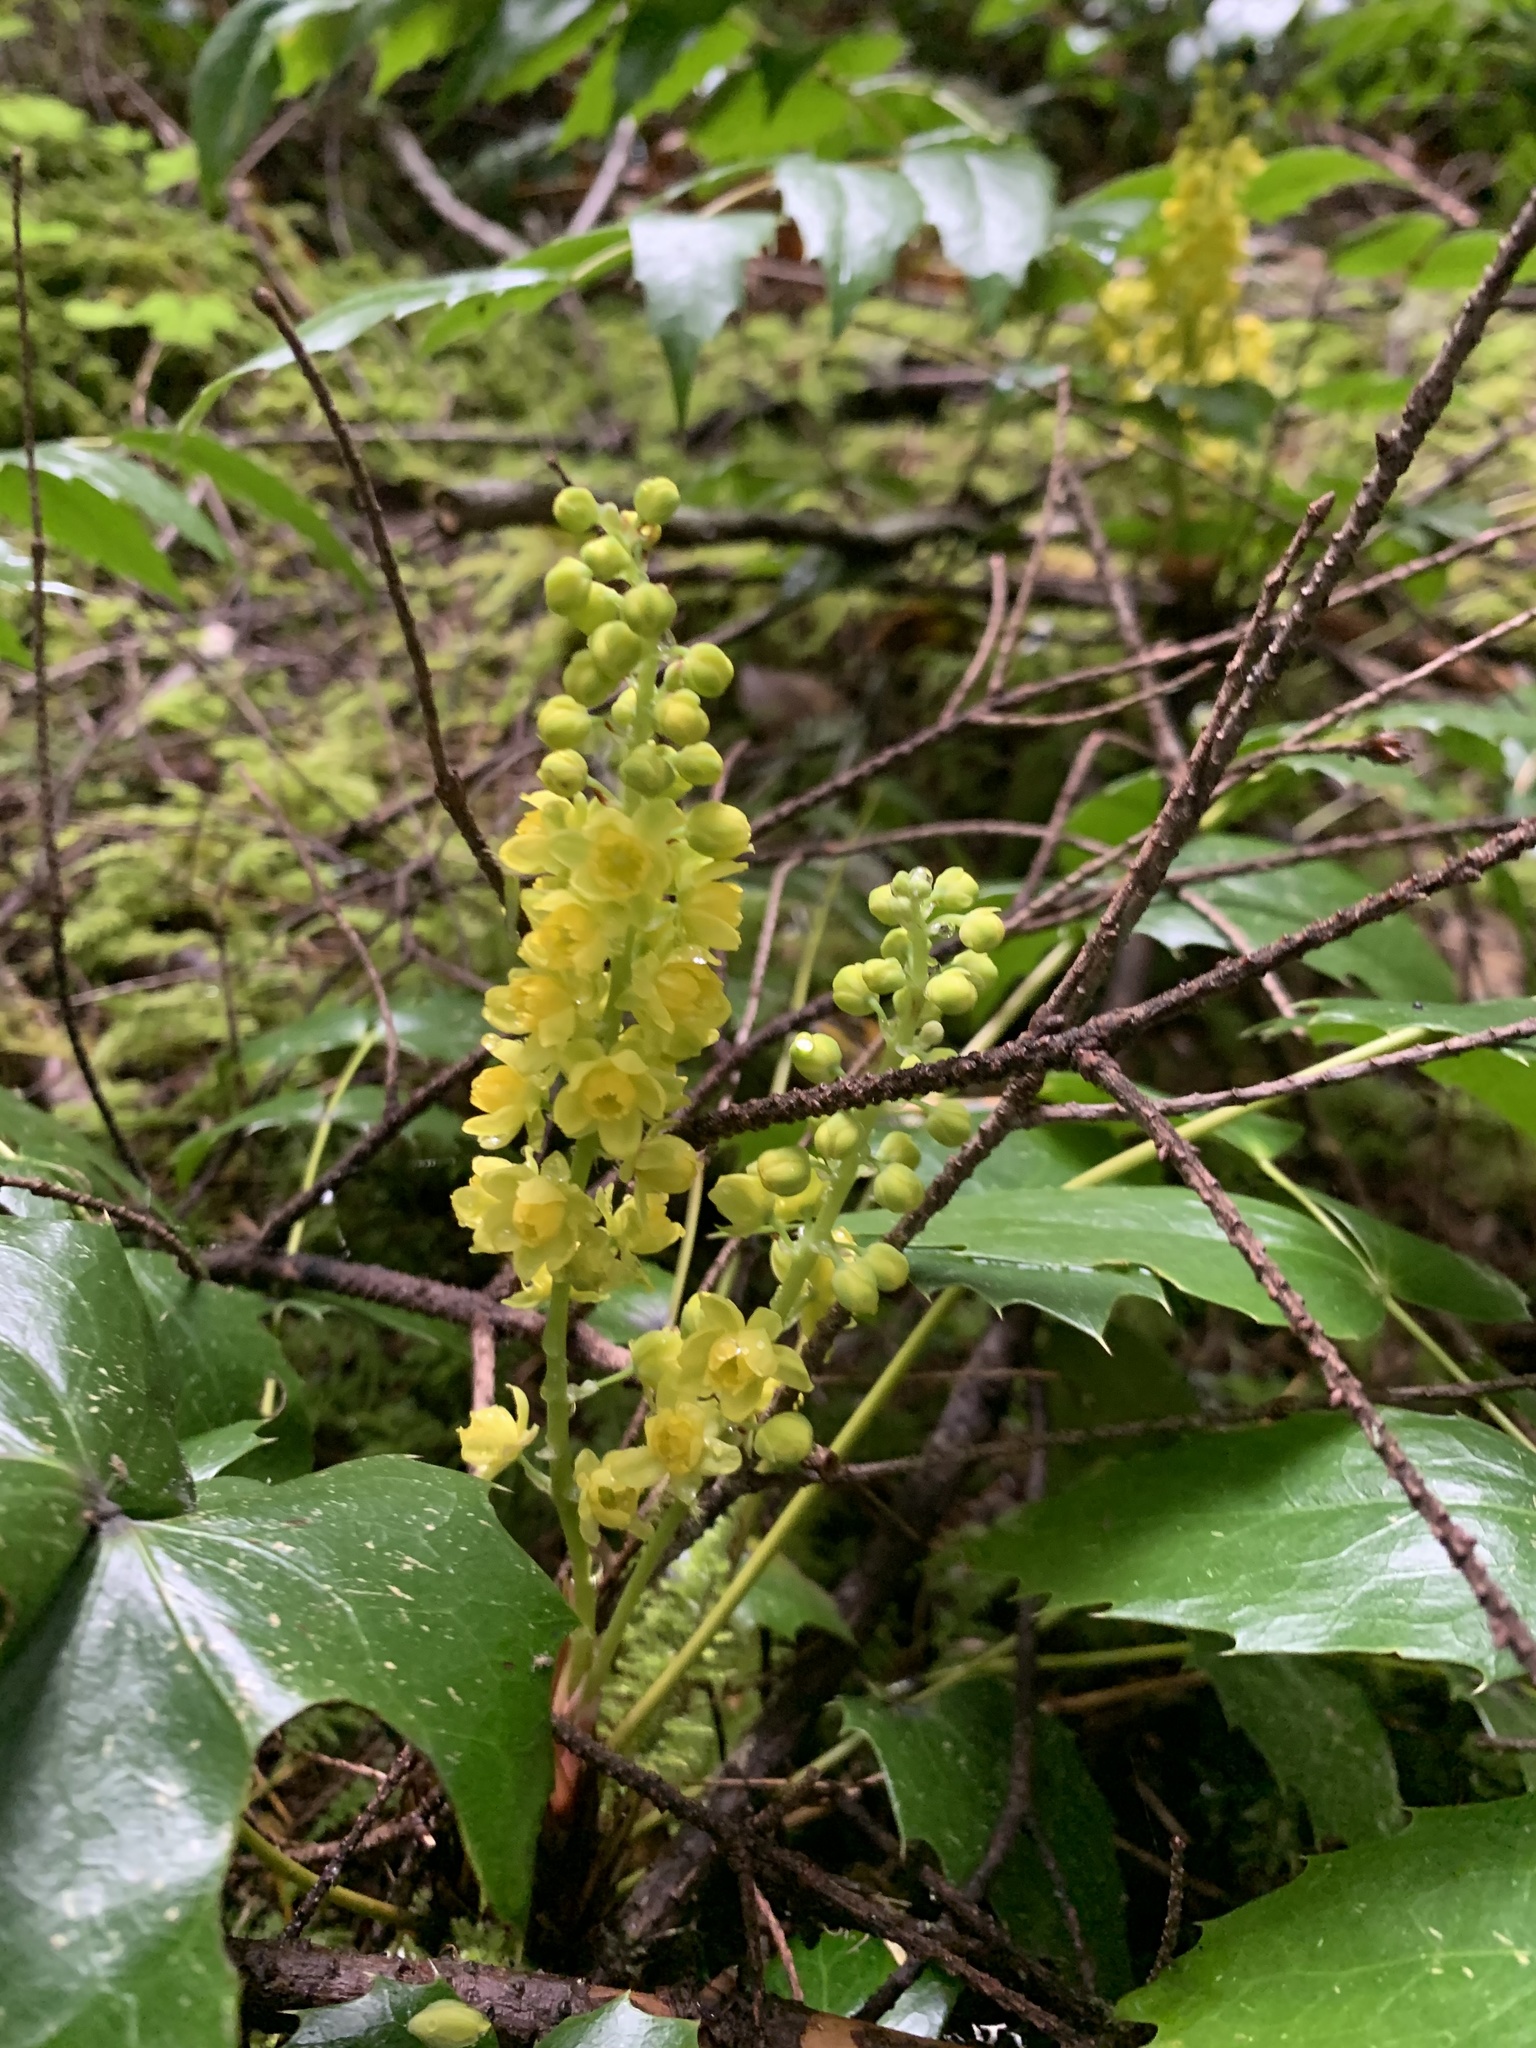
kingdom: Plantae
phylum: Tracheophyta
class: Magnoliopsida
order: Ranunculales
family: Berberidaceae
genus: Mahonia
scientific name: Mahonia nervosa
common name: Cascade oregon-grape
